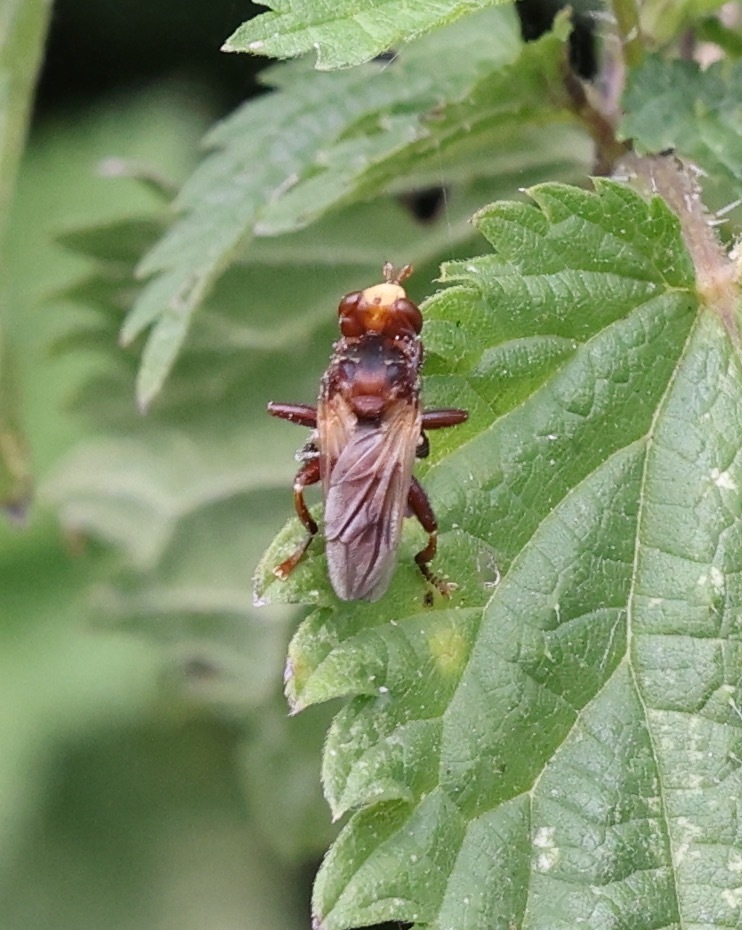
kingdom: Animalia
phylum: Arthropoda
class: Insecta
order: Diptera
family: Conopidae
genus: Sicus
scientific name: Sicus ferrugineus
